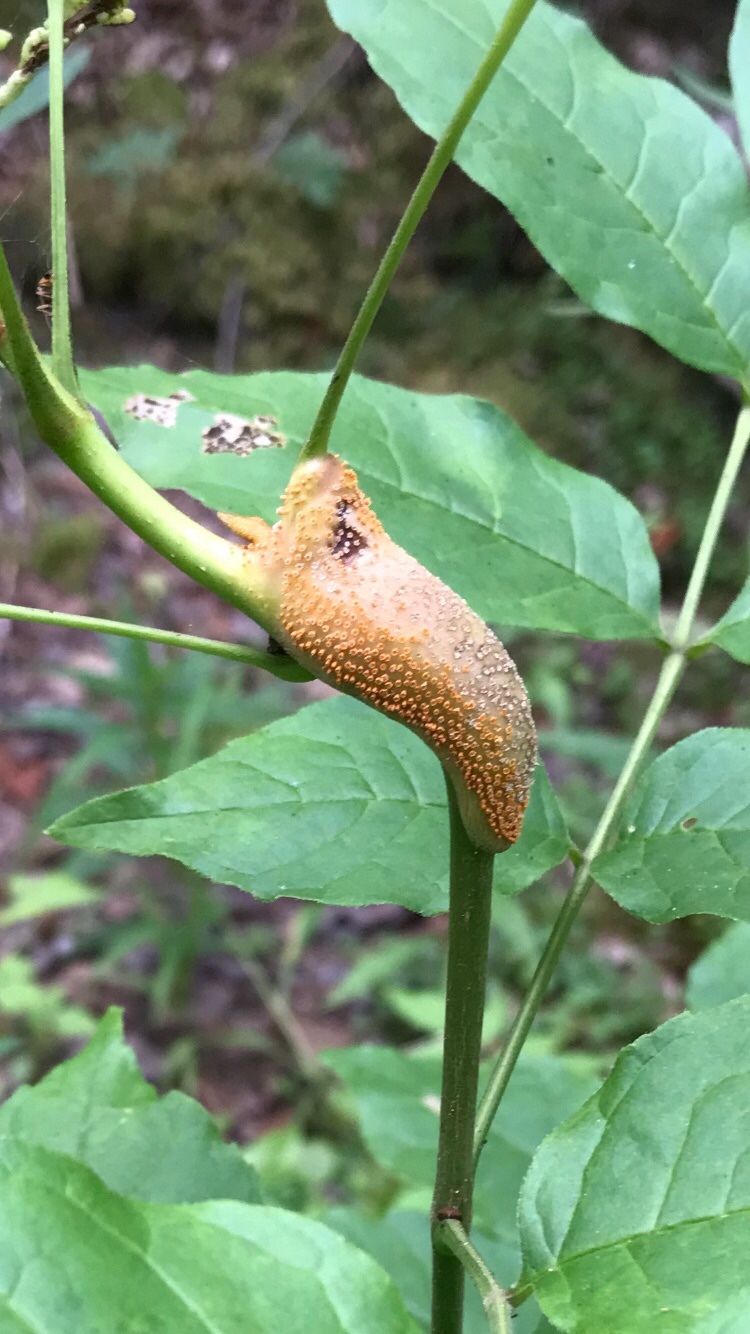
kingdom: Fungi
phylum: Basidiomycota
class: Pucciniomycetes
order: Pucciniales
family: Pucciniaceae
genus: Puccinia
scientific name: Puccinia sparganioidis
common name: Ash rust
